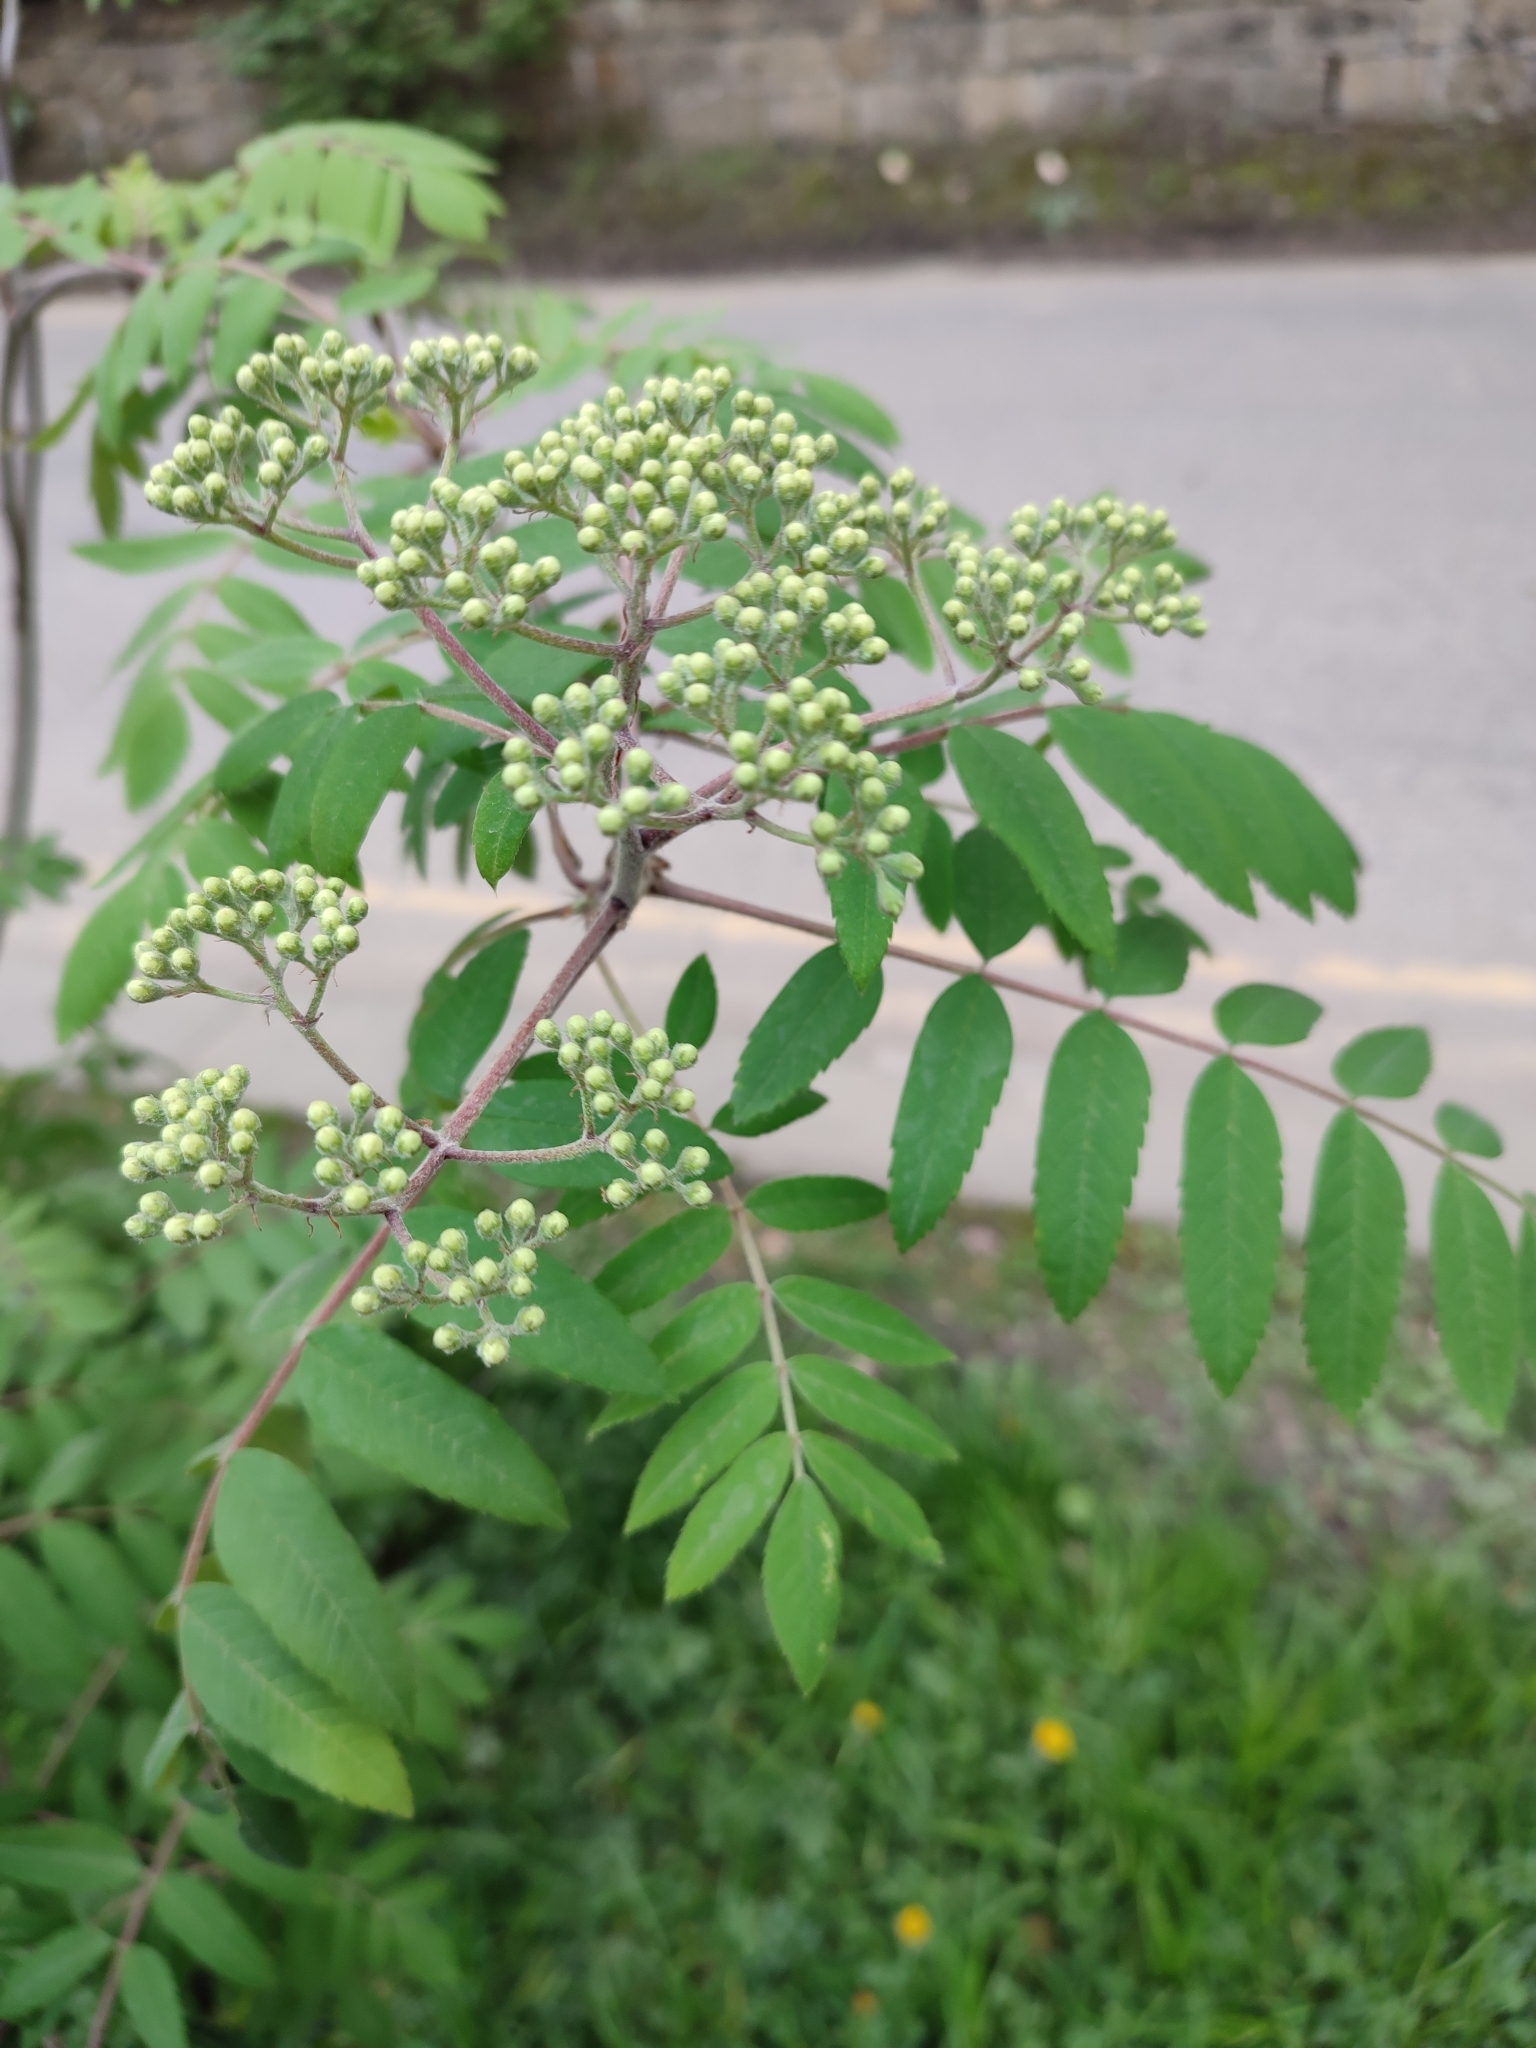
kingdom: Plantae
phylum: Tracheophyta
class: Magnoliopsida
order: Rosales
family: Rosaceae
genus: Sorbus
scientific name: Sorbus aucuparia
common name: Rowan
